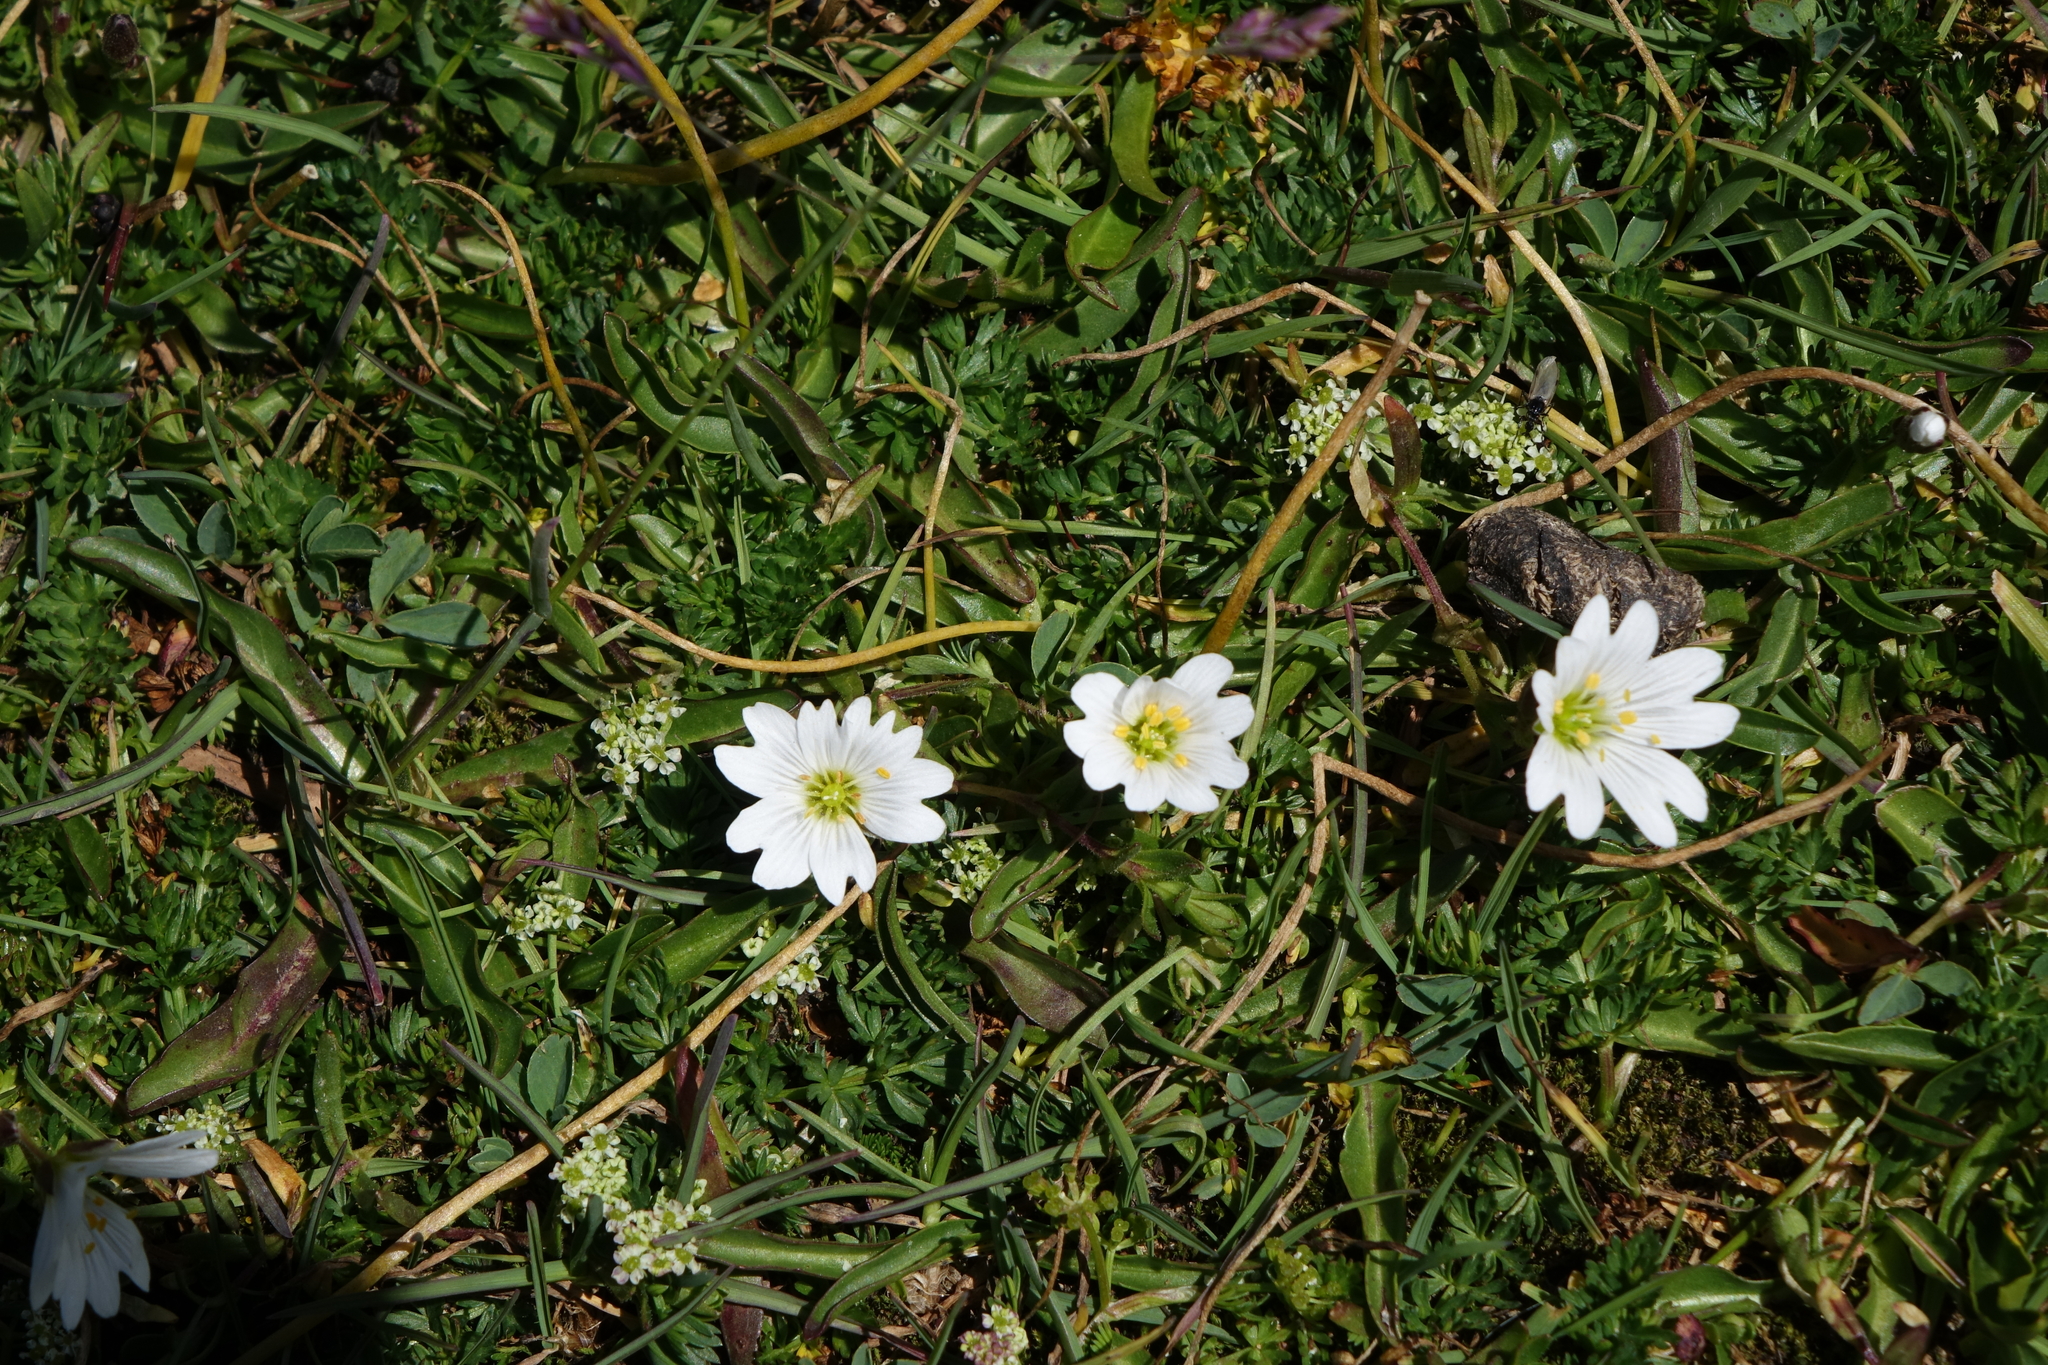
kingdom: Plantae
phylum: Tracheophyta
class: Magnoliopsida
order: Caryophyllales
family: Caryophyllaceae
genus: Dichodon
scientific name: Dichodon cerastoides
